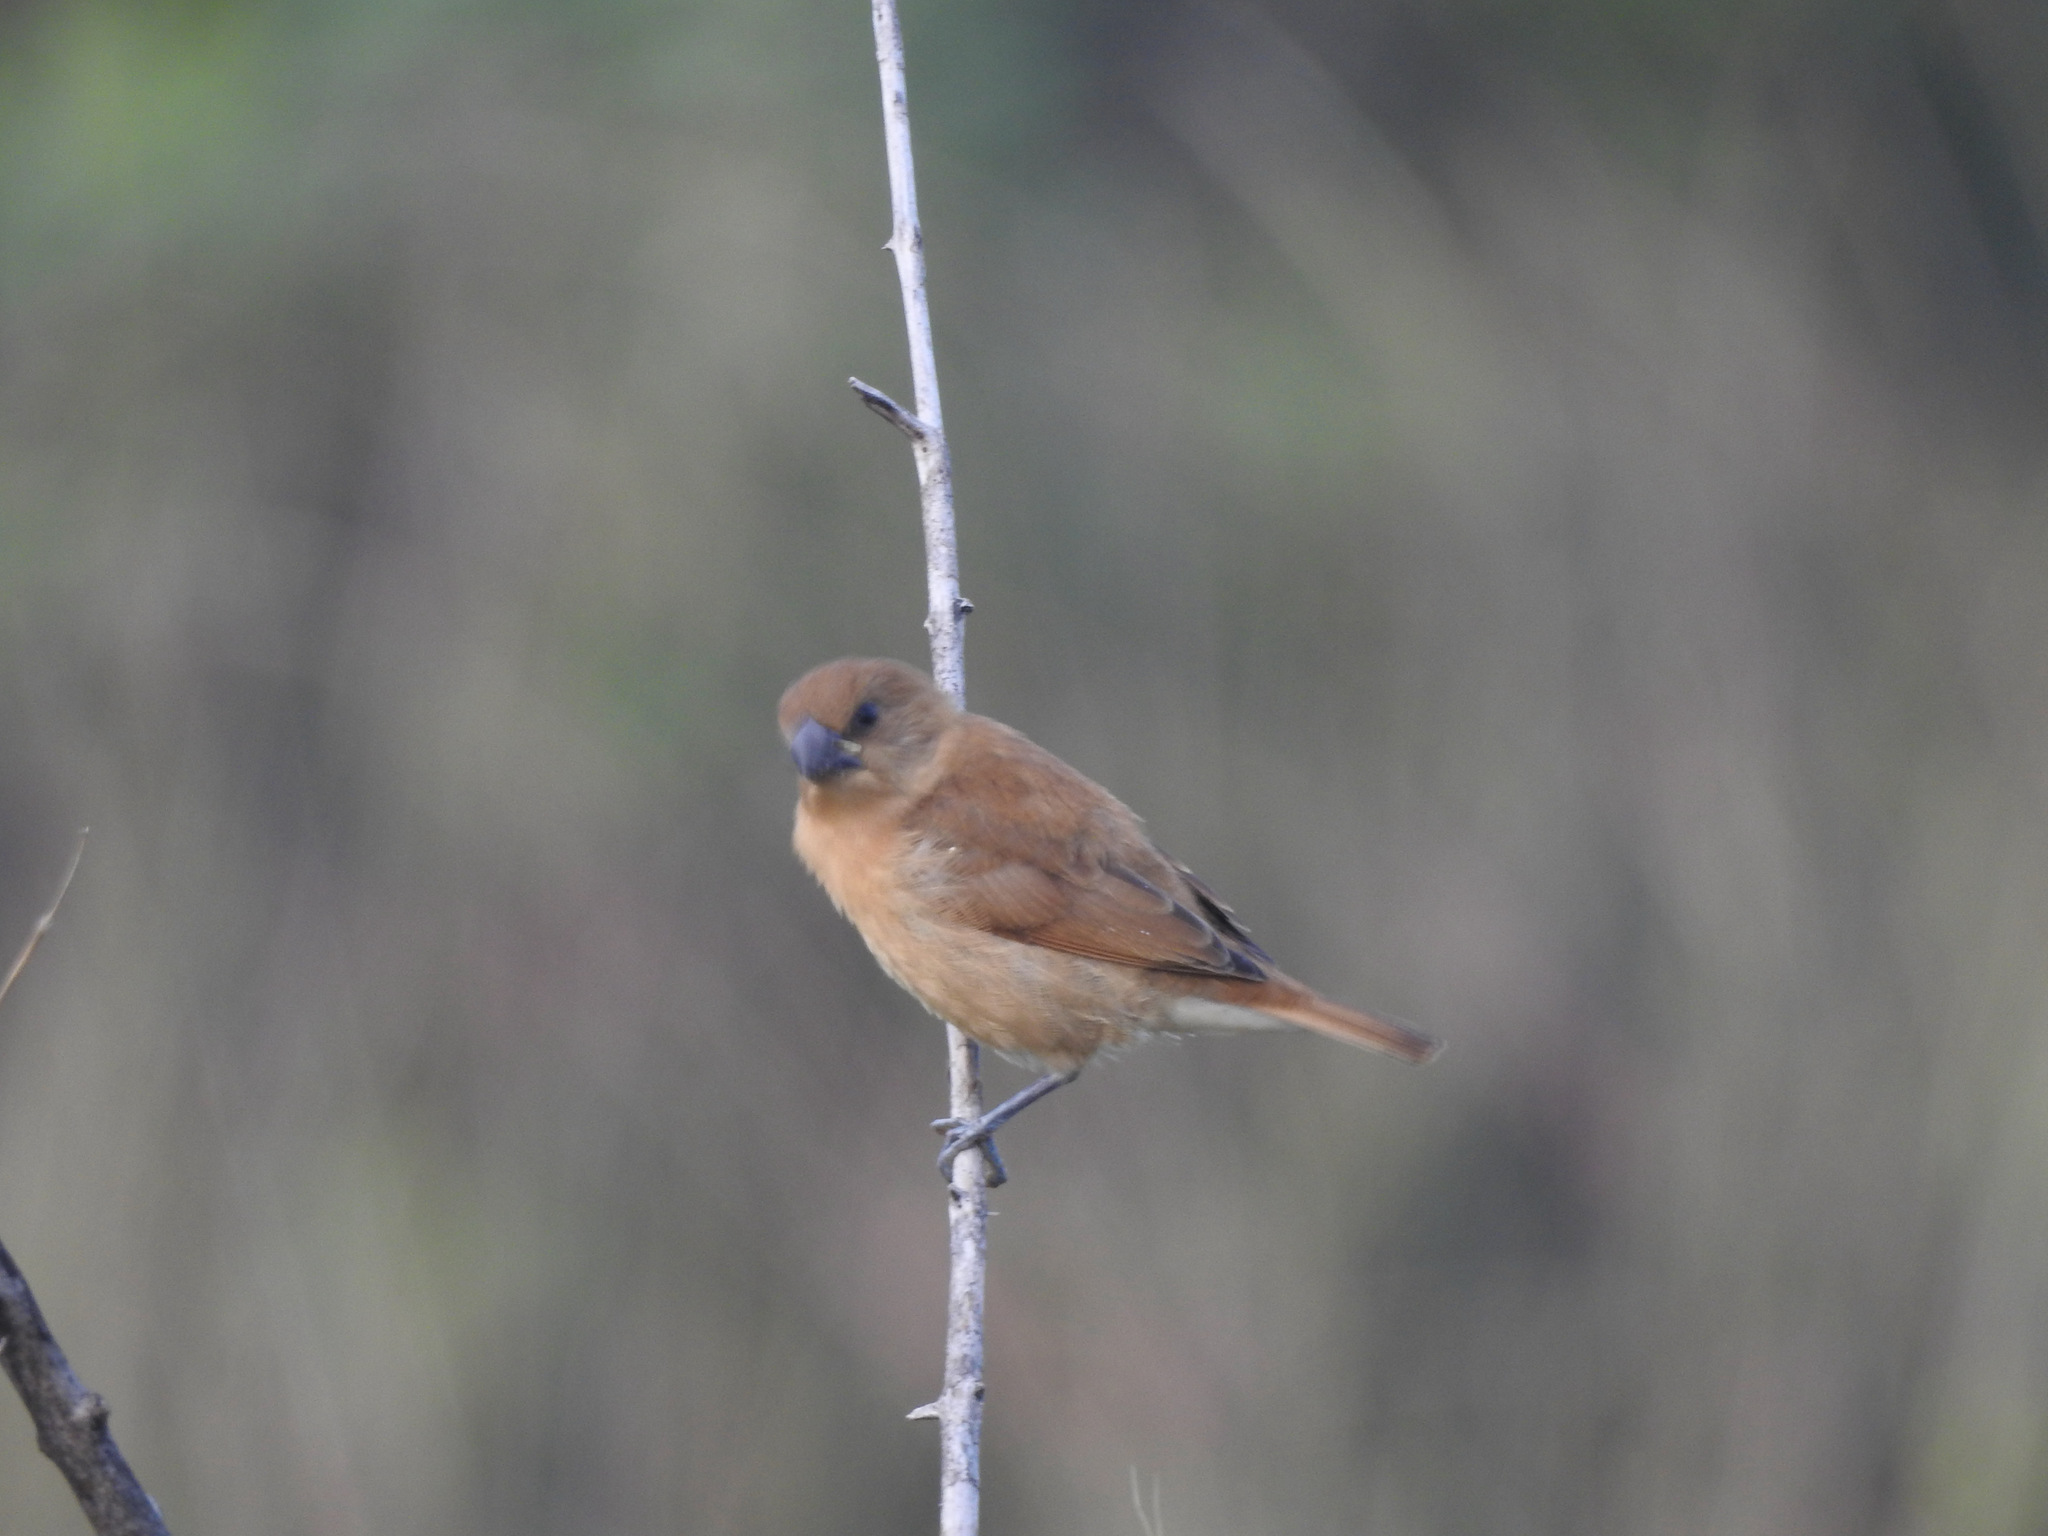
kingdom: Animalia
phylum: Chordata
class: Aves
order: Passeriformes
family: Estrildidae
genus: Lonchura
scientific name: Lonchura punctulata
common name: Scaly-breasted munia
